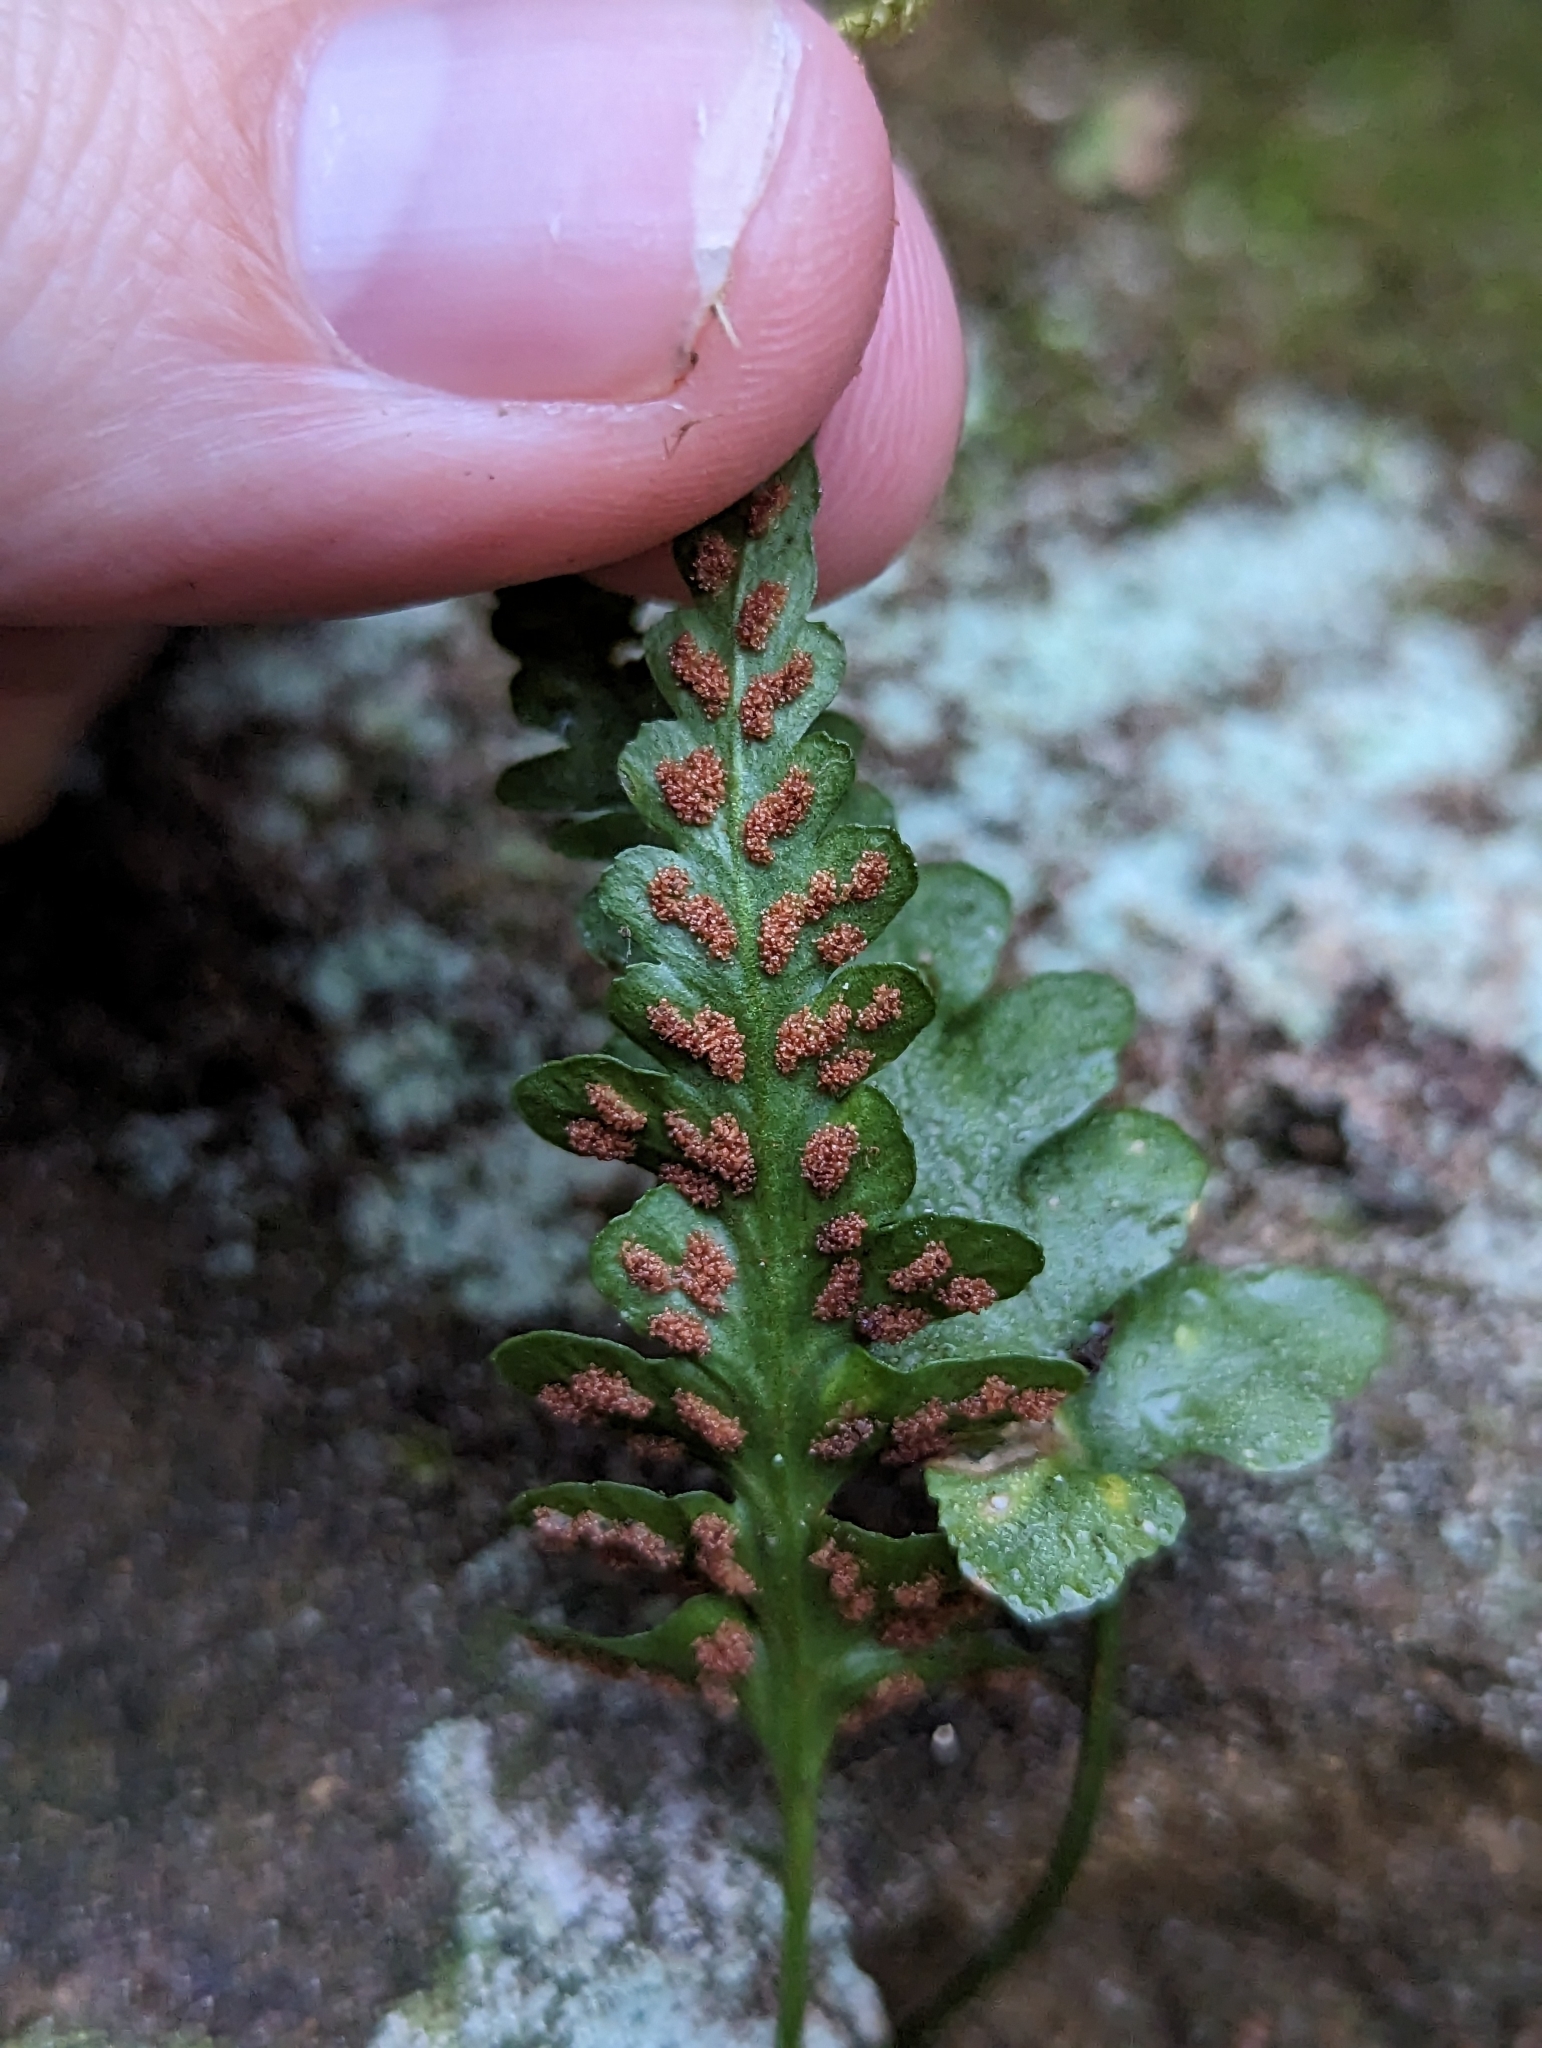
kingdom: Plantae
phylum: Tracheophyta
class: Polypodiopsida
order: Polypodiales
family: Aspleniaceae
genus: Asplenium
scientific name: Asplenium pinnatifidum
